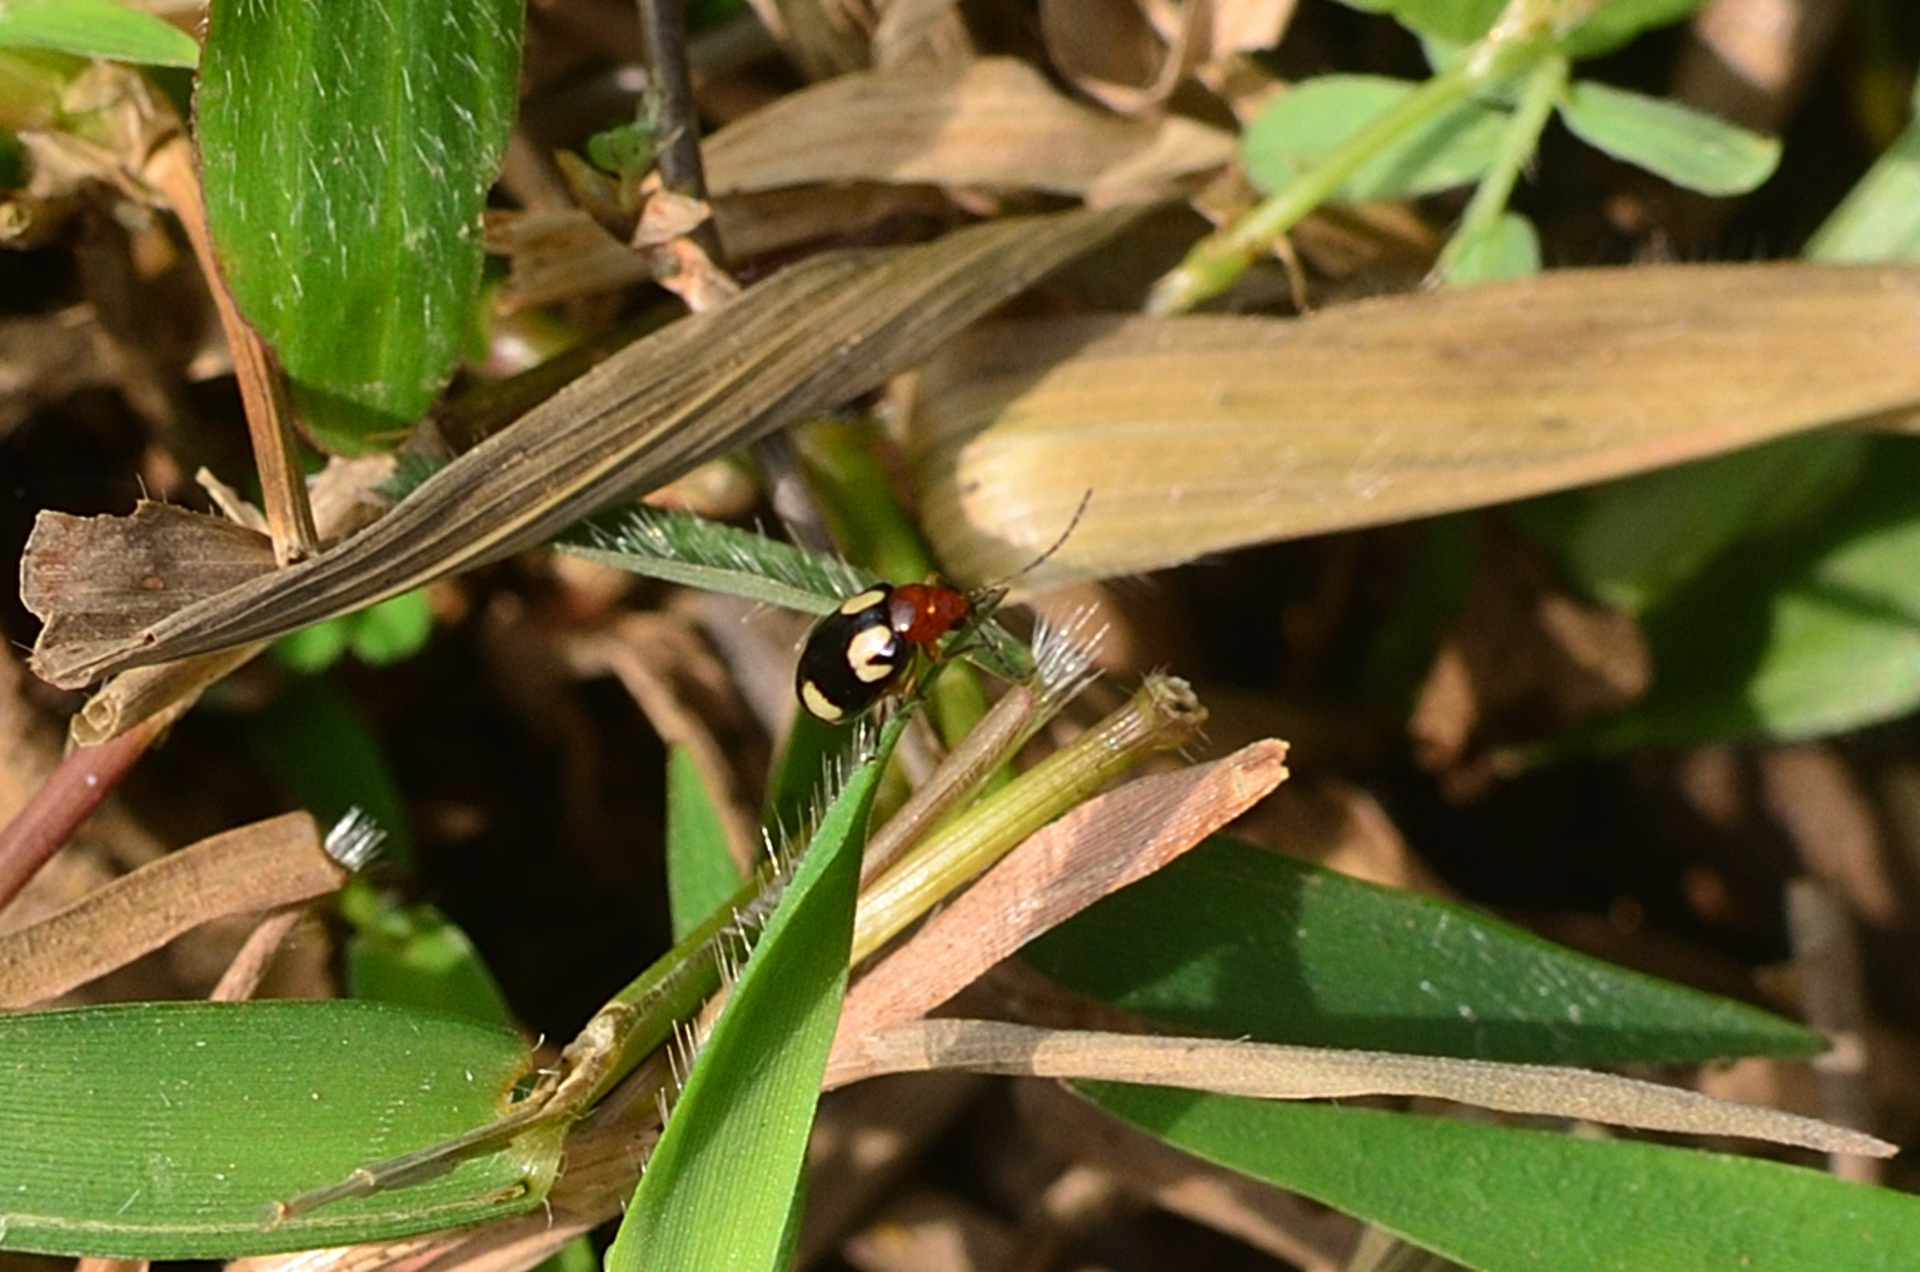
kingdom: Animalia
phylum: Arthropoda
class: Insecta
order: Coleoptera
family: Chrysomelidae
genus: Monolepta
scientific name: Monolepta signata
